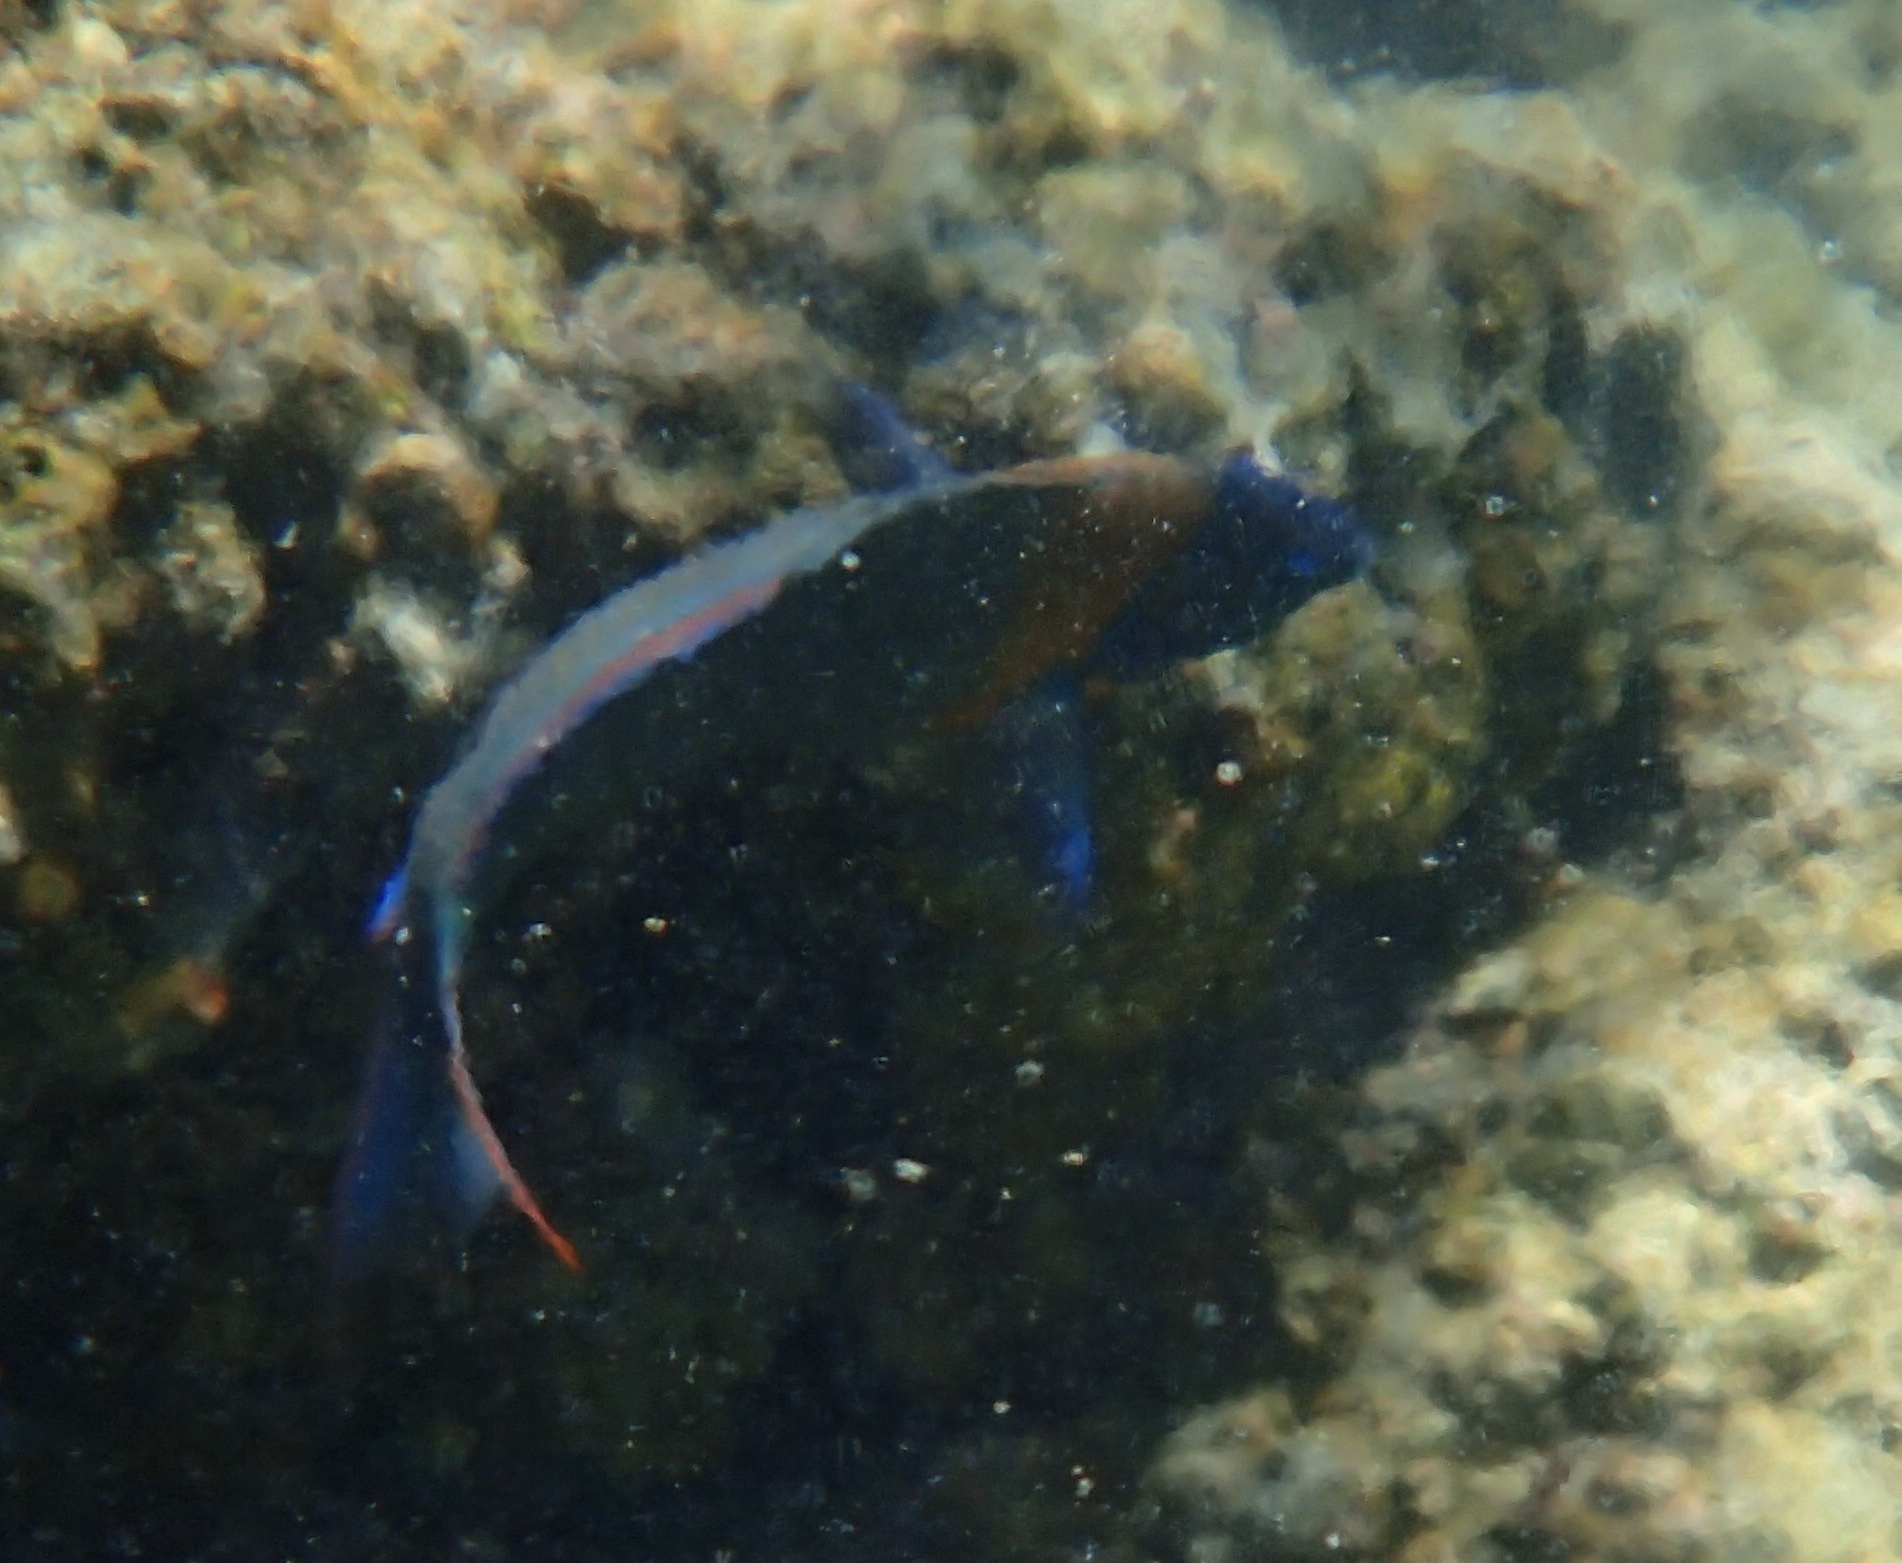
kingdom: Animalia
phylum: Chordata
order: Perciformes
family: Labridae
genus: Thalassoma
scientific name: Thalassoma duperrey
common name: Saddle wrasse
